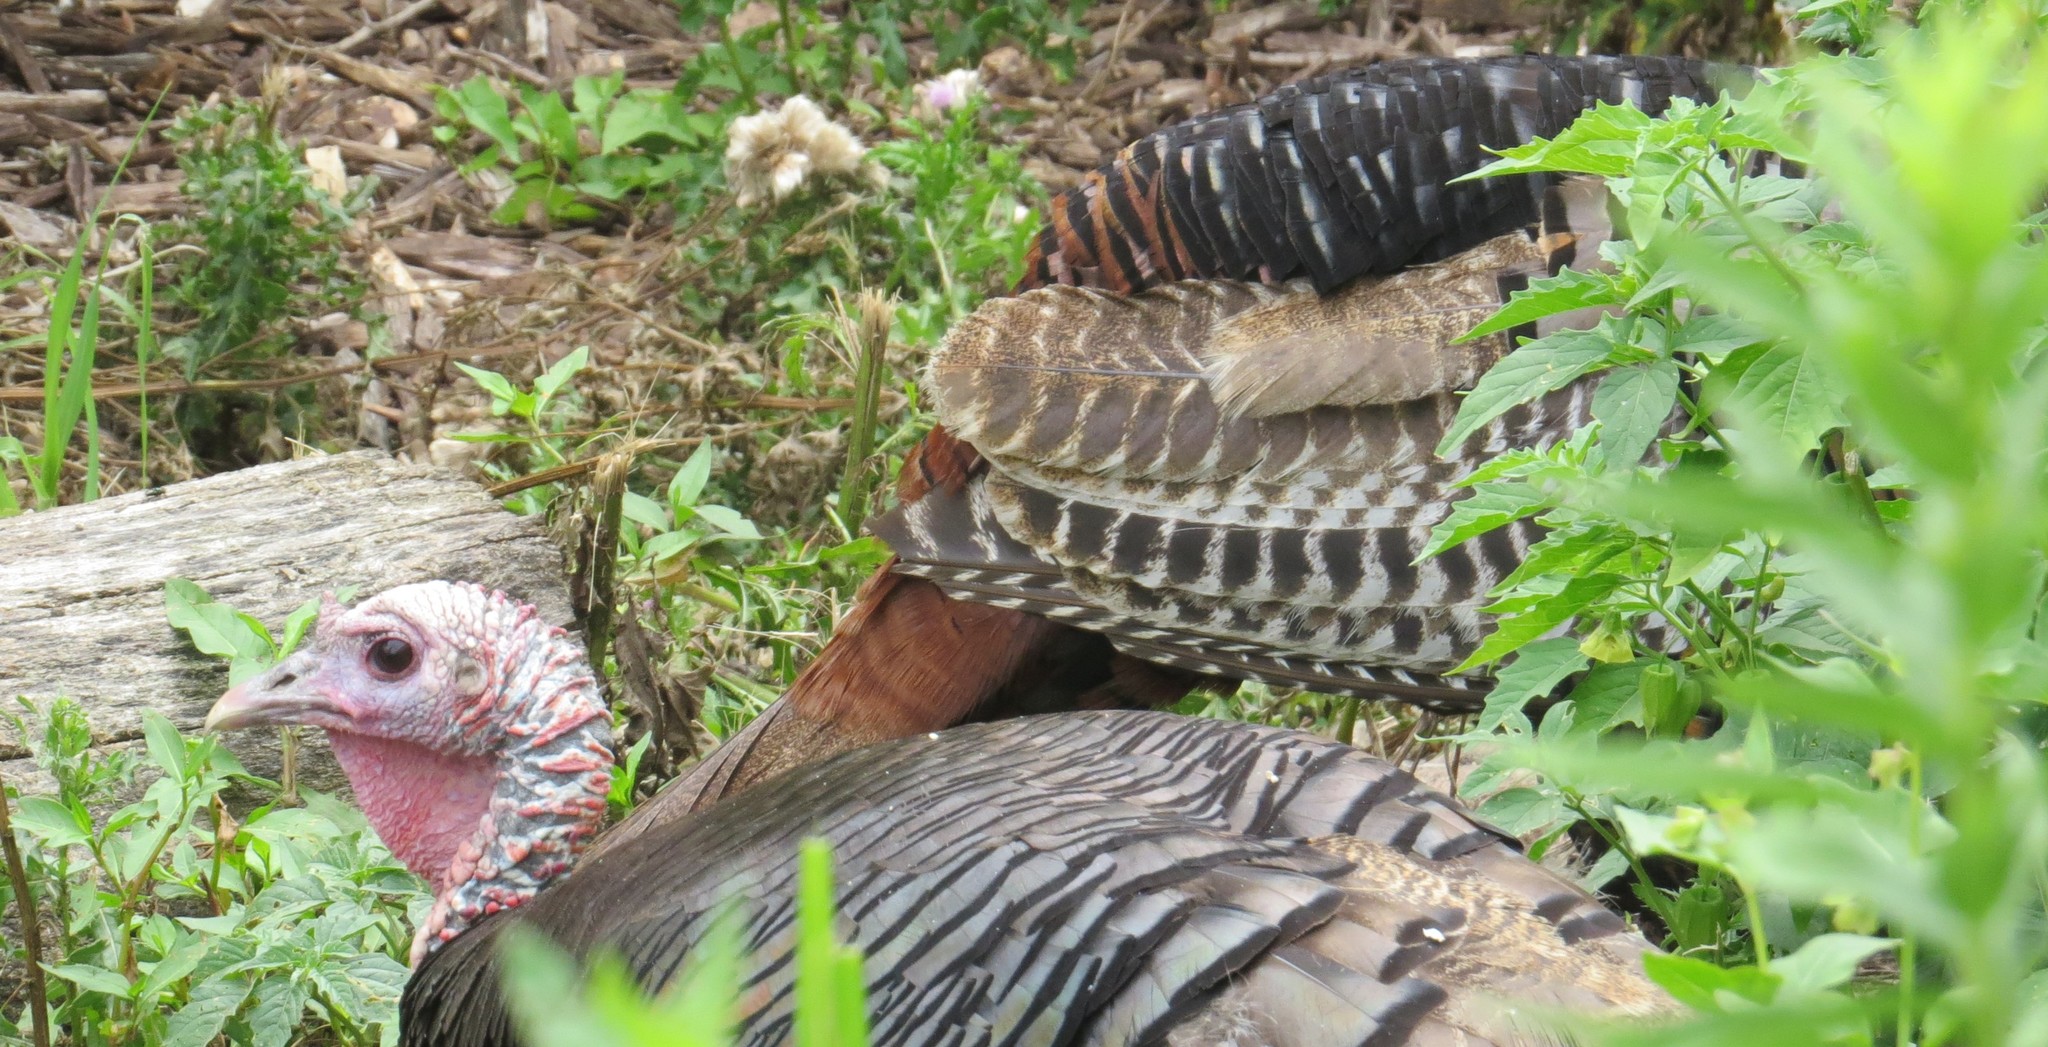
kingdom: Animalia
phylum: Chordata
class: Aves
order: Galliformes
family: Phasianidae
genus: Meleagris
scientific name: Meleagris gallopavo
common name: Wild turkey
